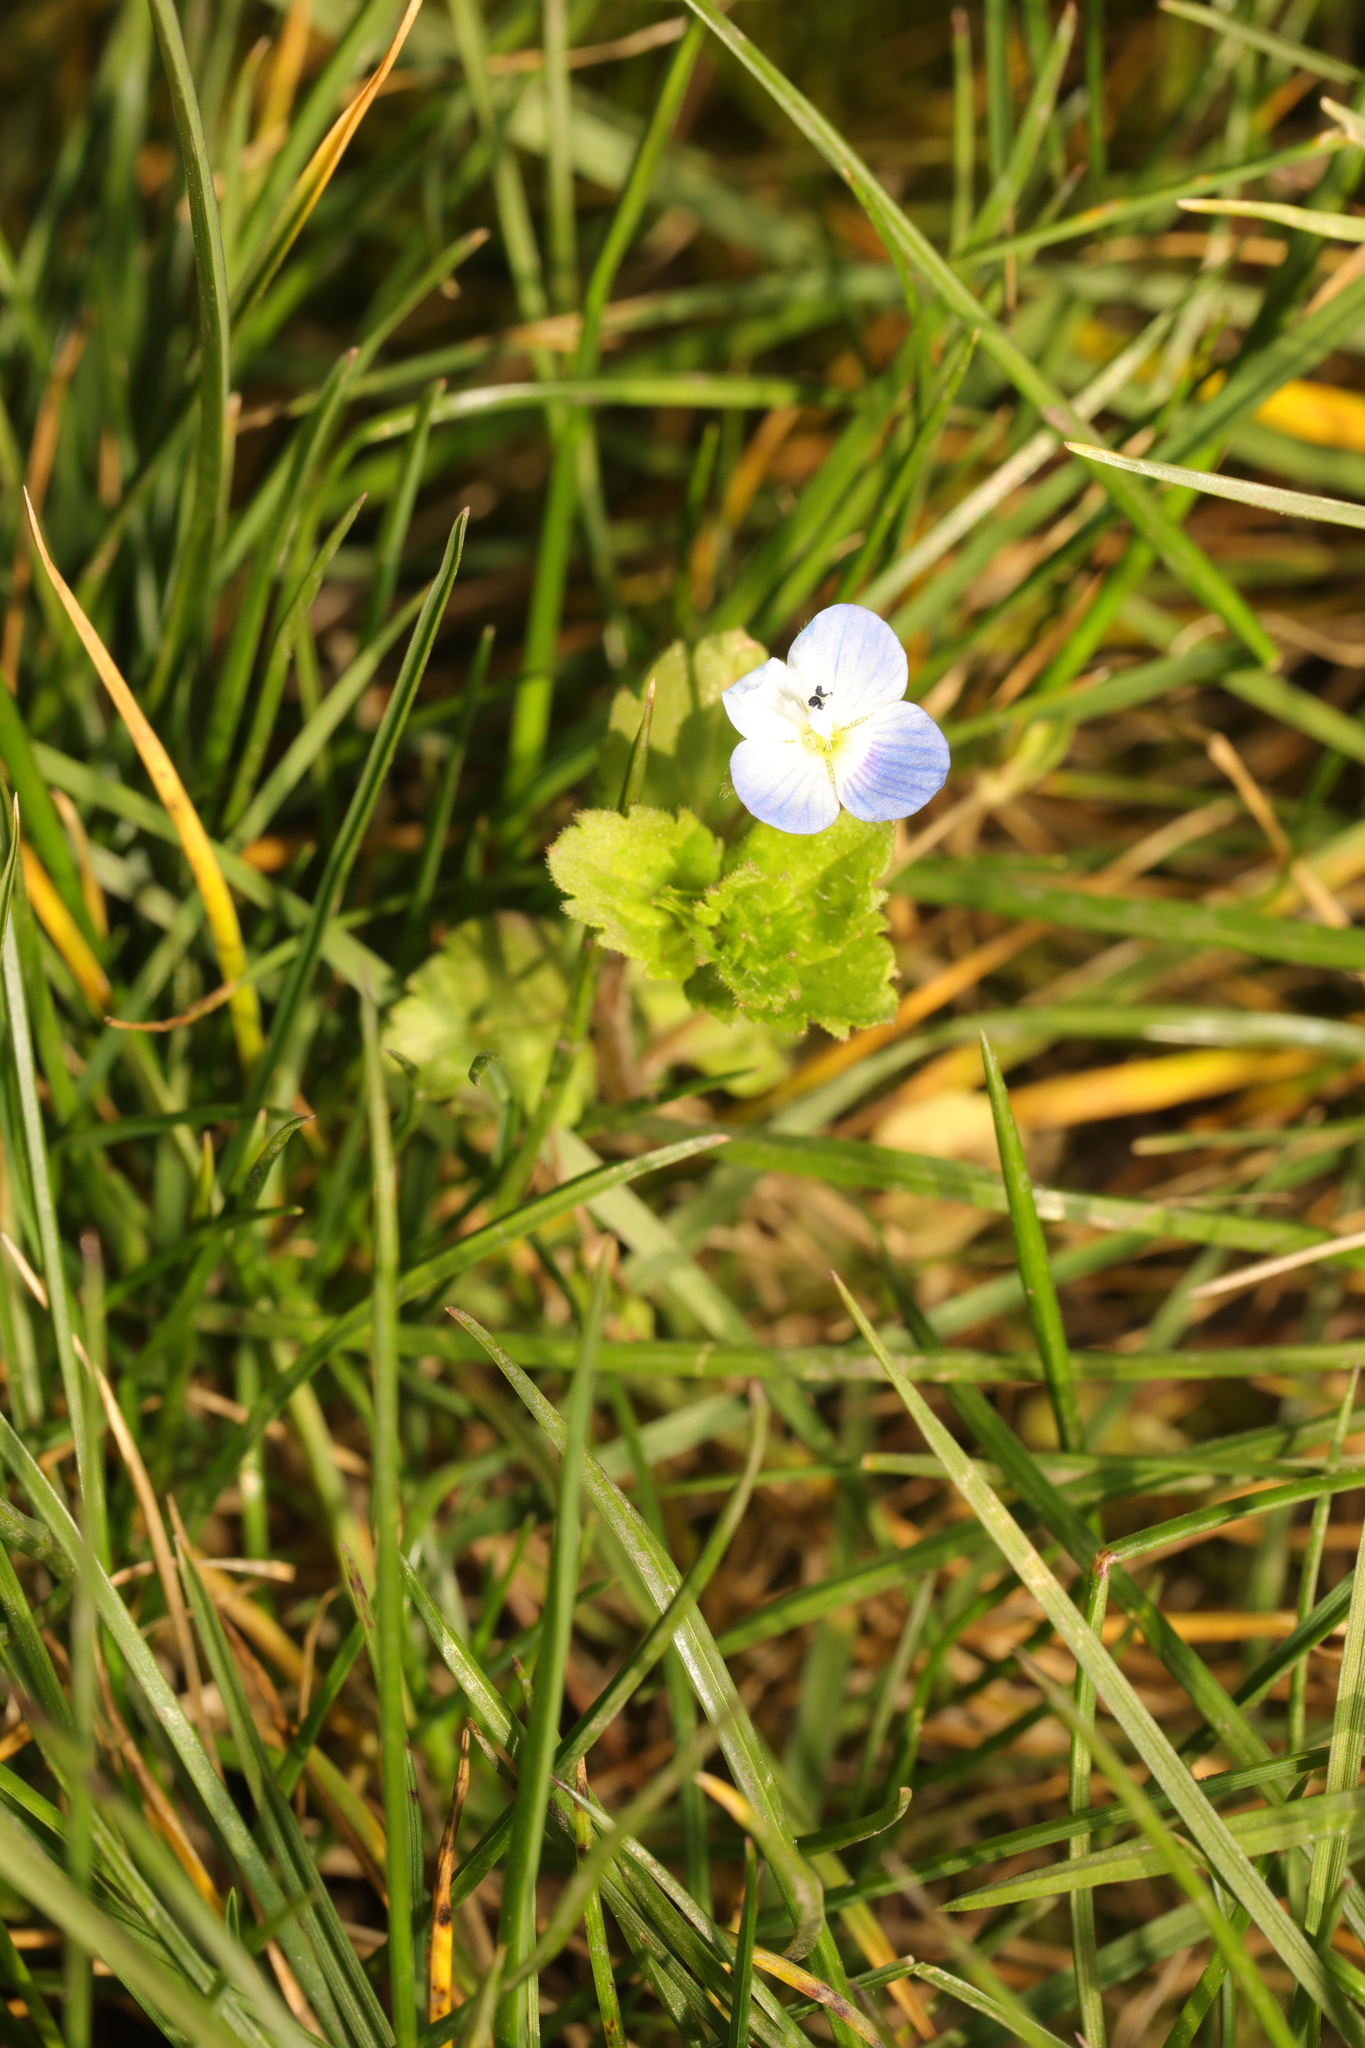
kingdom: Plantae
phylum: Tracheophyta
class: Magnoliopsida
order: Lamiales
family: Plantaginaceae
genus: Veronica
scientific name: Veronica persica
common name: Common field-speedwell
